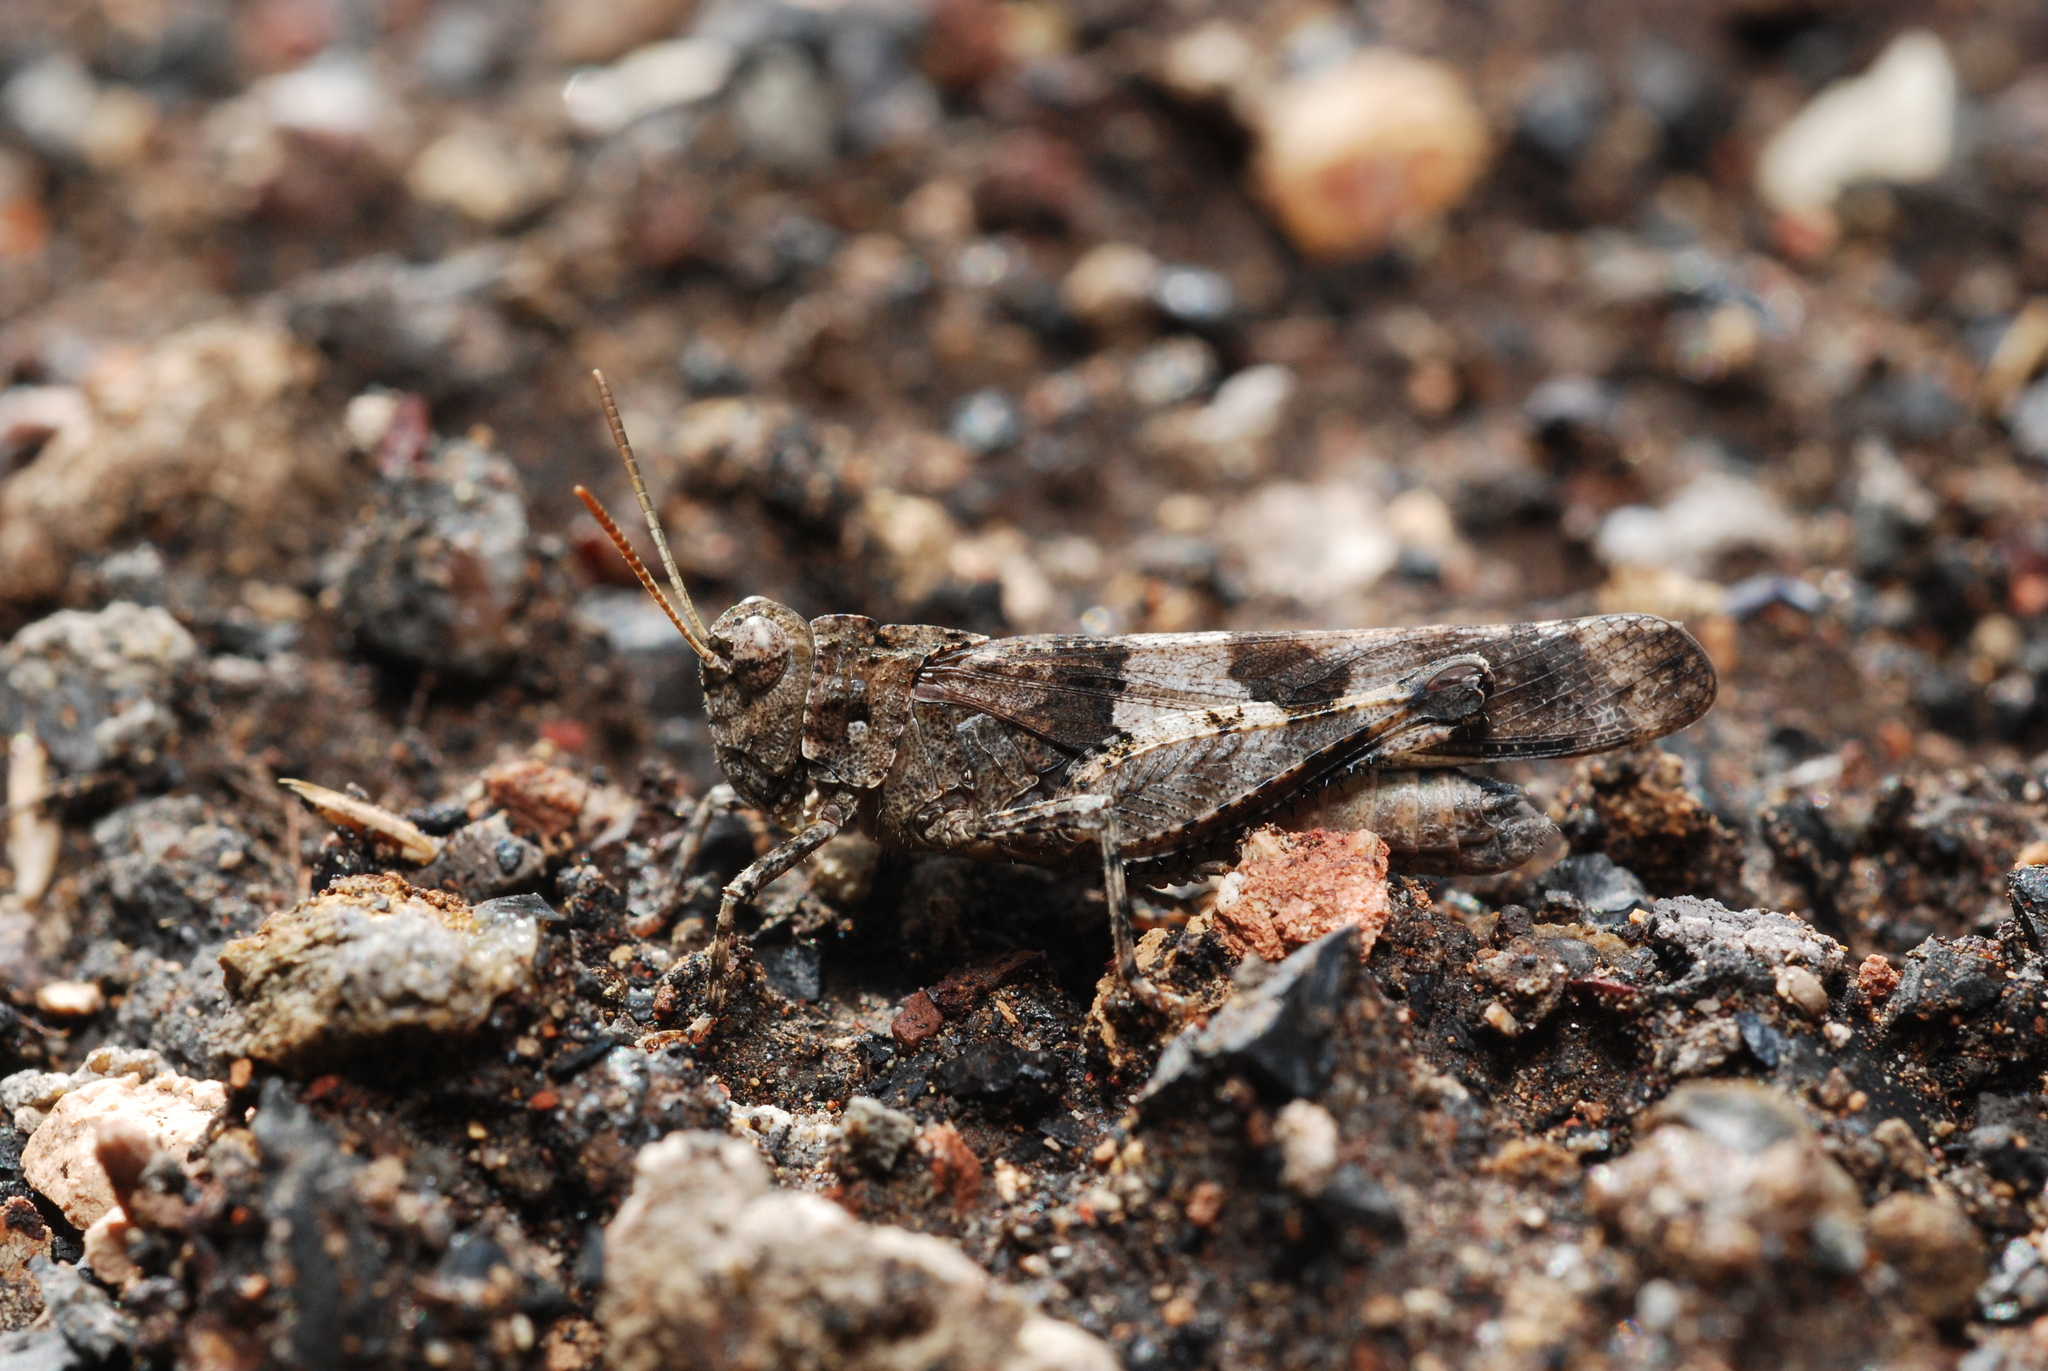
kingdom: Animalia
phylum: Arthropoda
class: Insecta
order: Orthoptera
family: Acrididae
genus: Oedipoda
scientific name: Oedipoda caerulescens
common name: Blue-winged grasshopper
